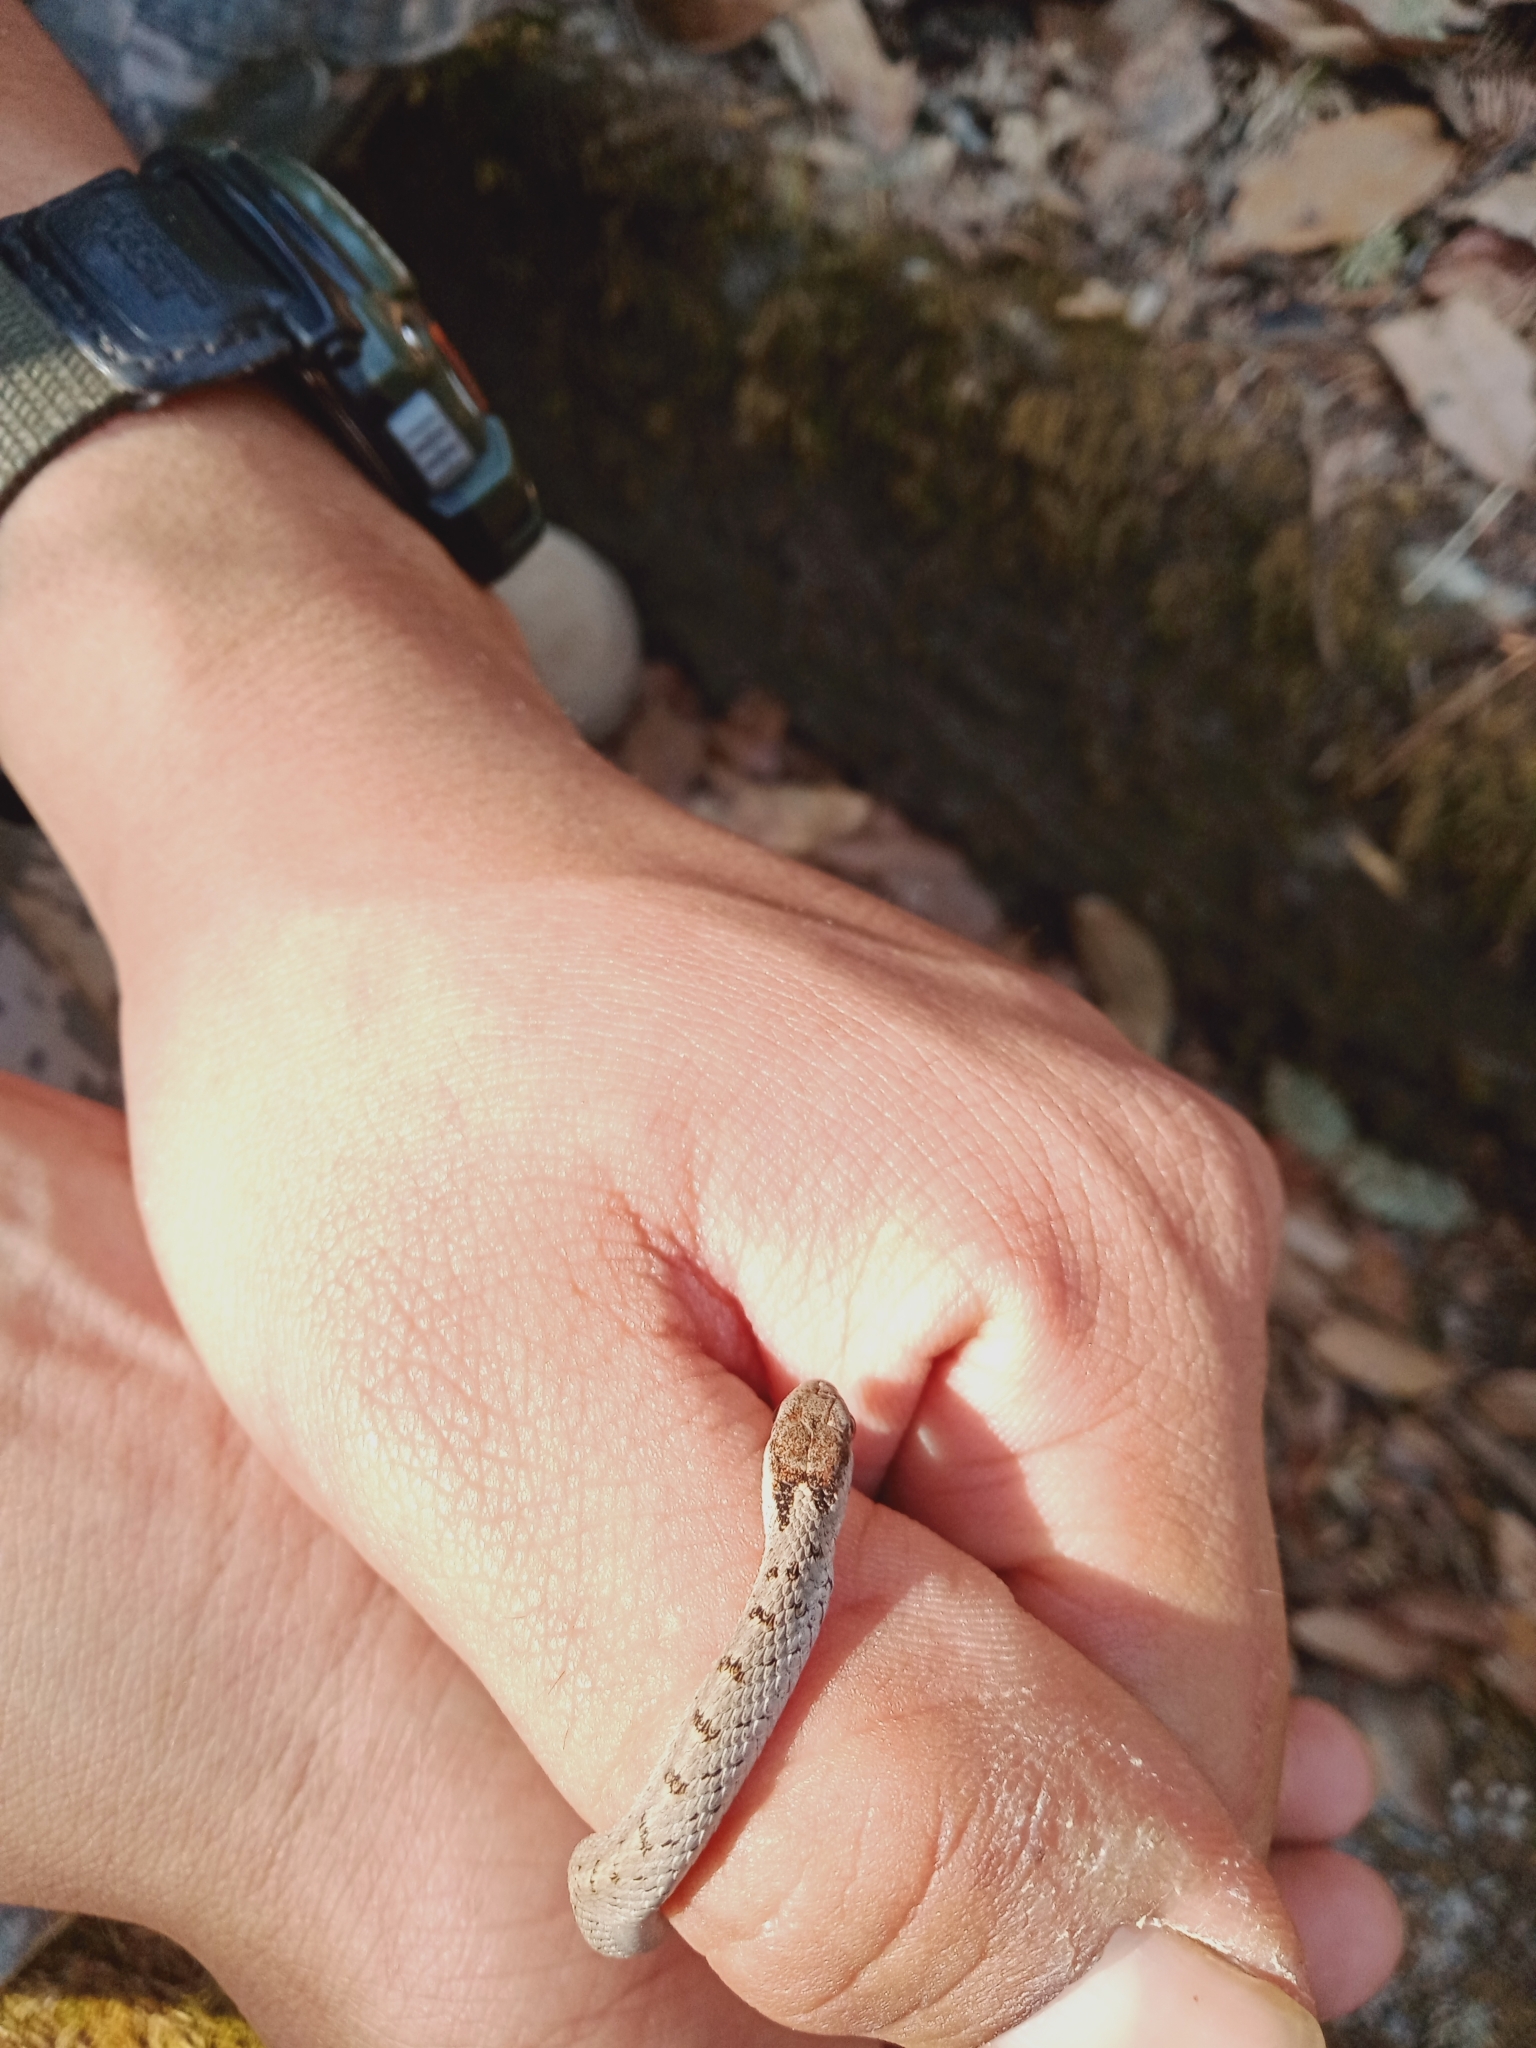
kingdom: Animalia
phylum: Chordata
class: Squamata
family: Colubridae
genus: Storeria
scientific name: Storeria storerioides
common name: Mexican brown snake
